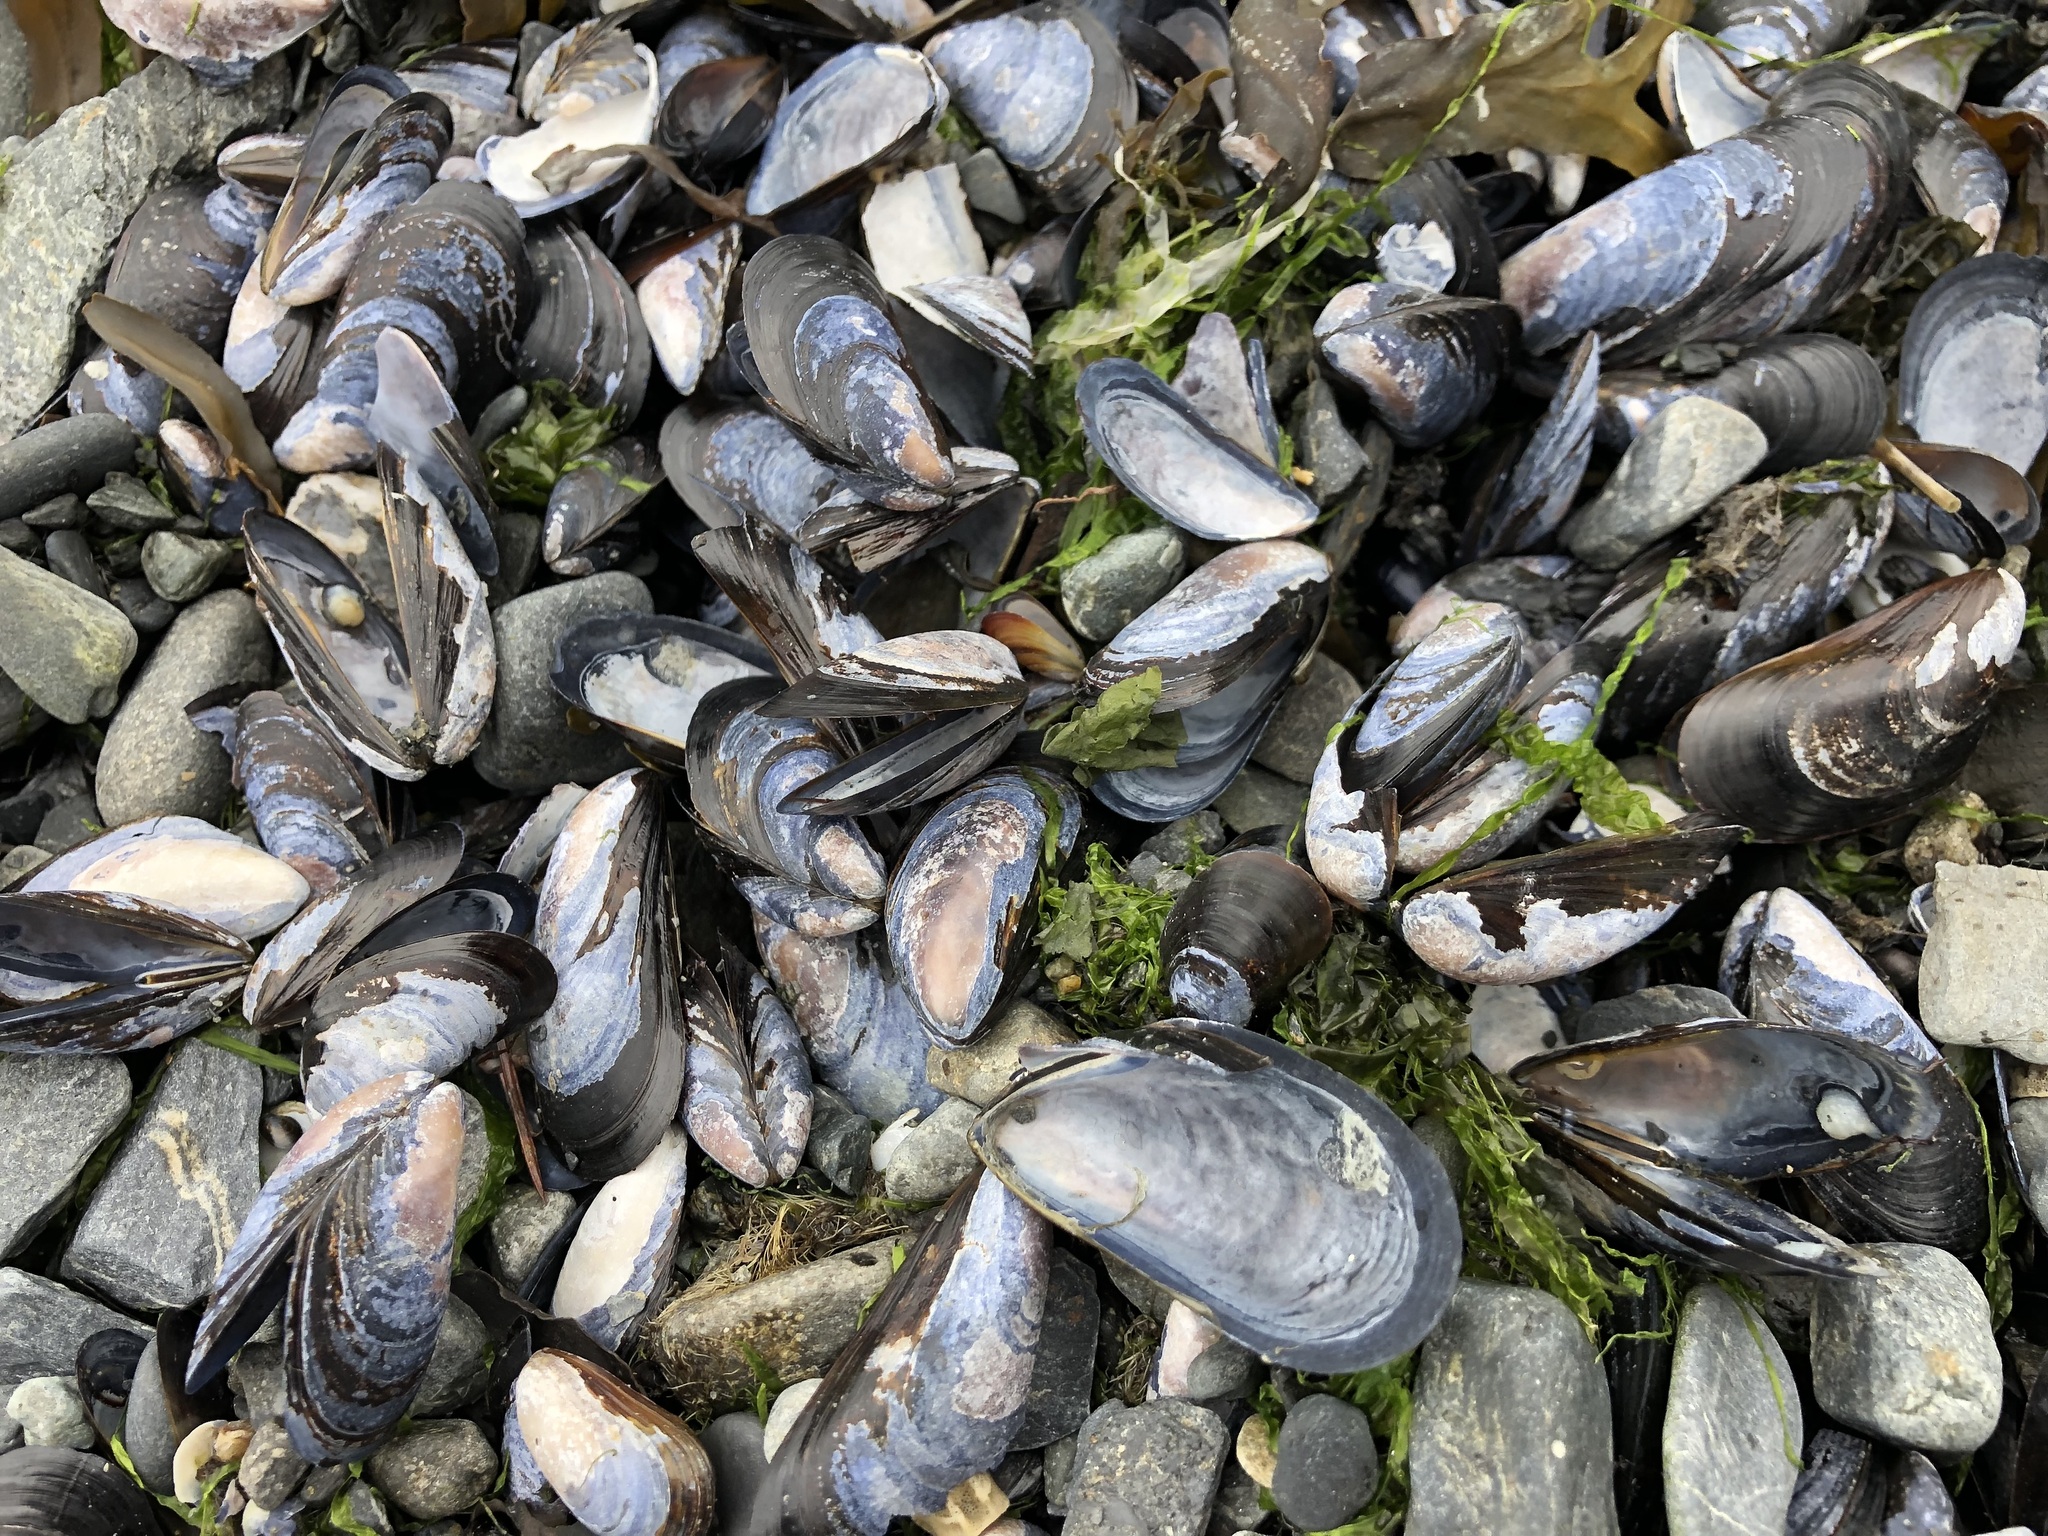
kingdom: Animalia
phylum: Mollusca
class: Bivalvia
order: Mytilida
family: Mytilidae
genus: Mytilus
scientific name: Mytilus trossulus
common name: Northern blue mussel
